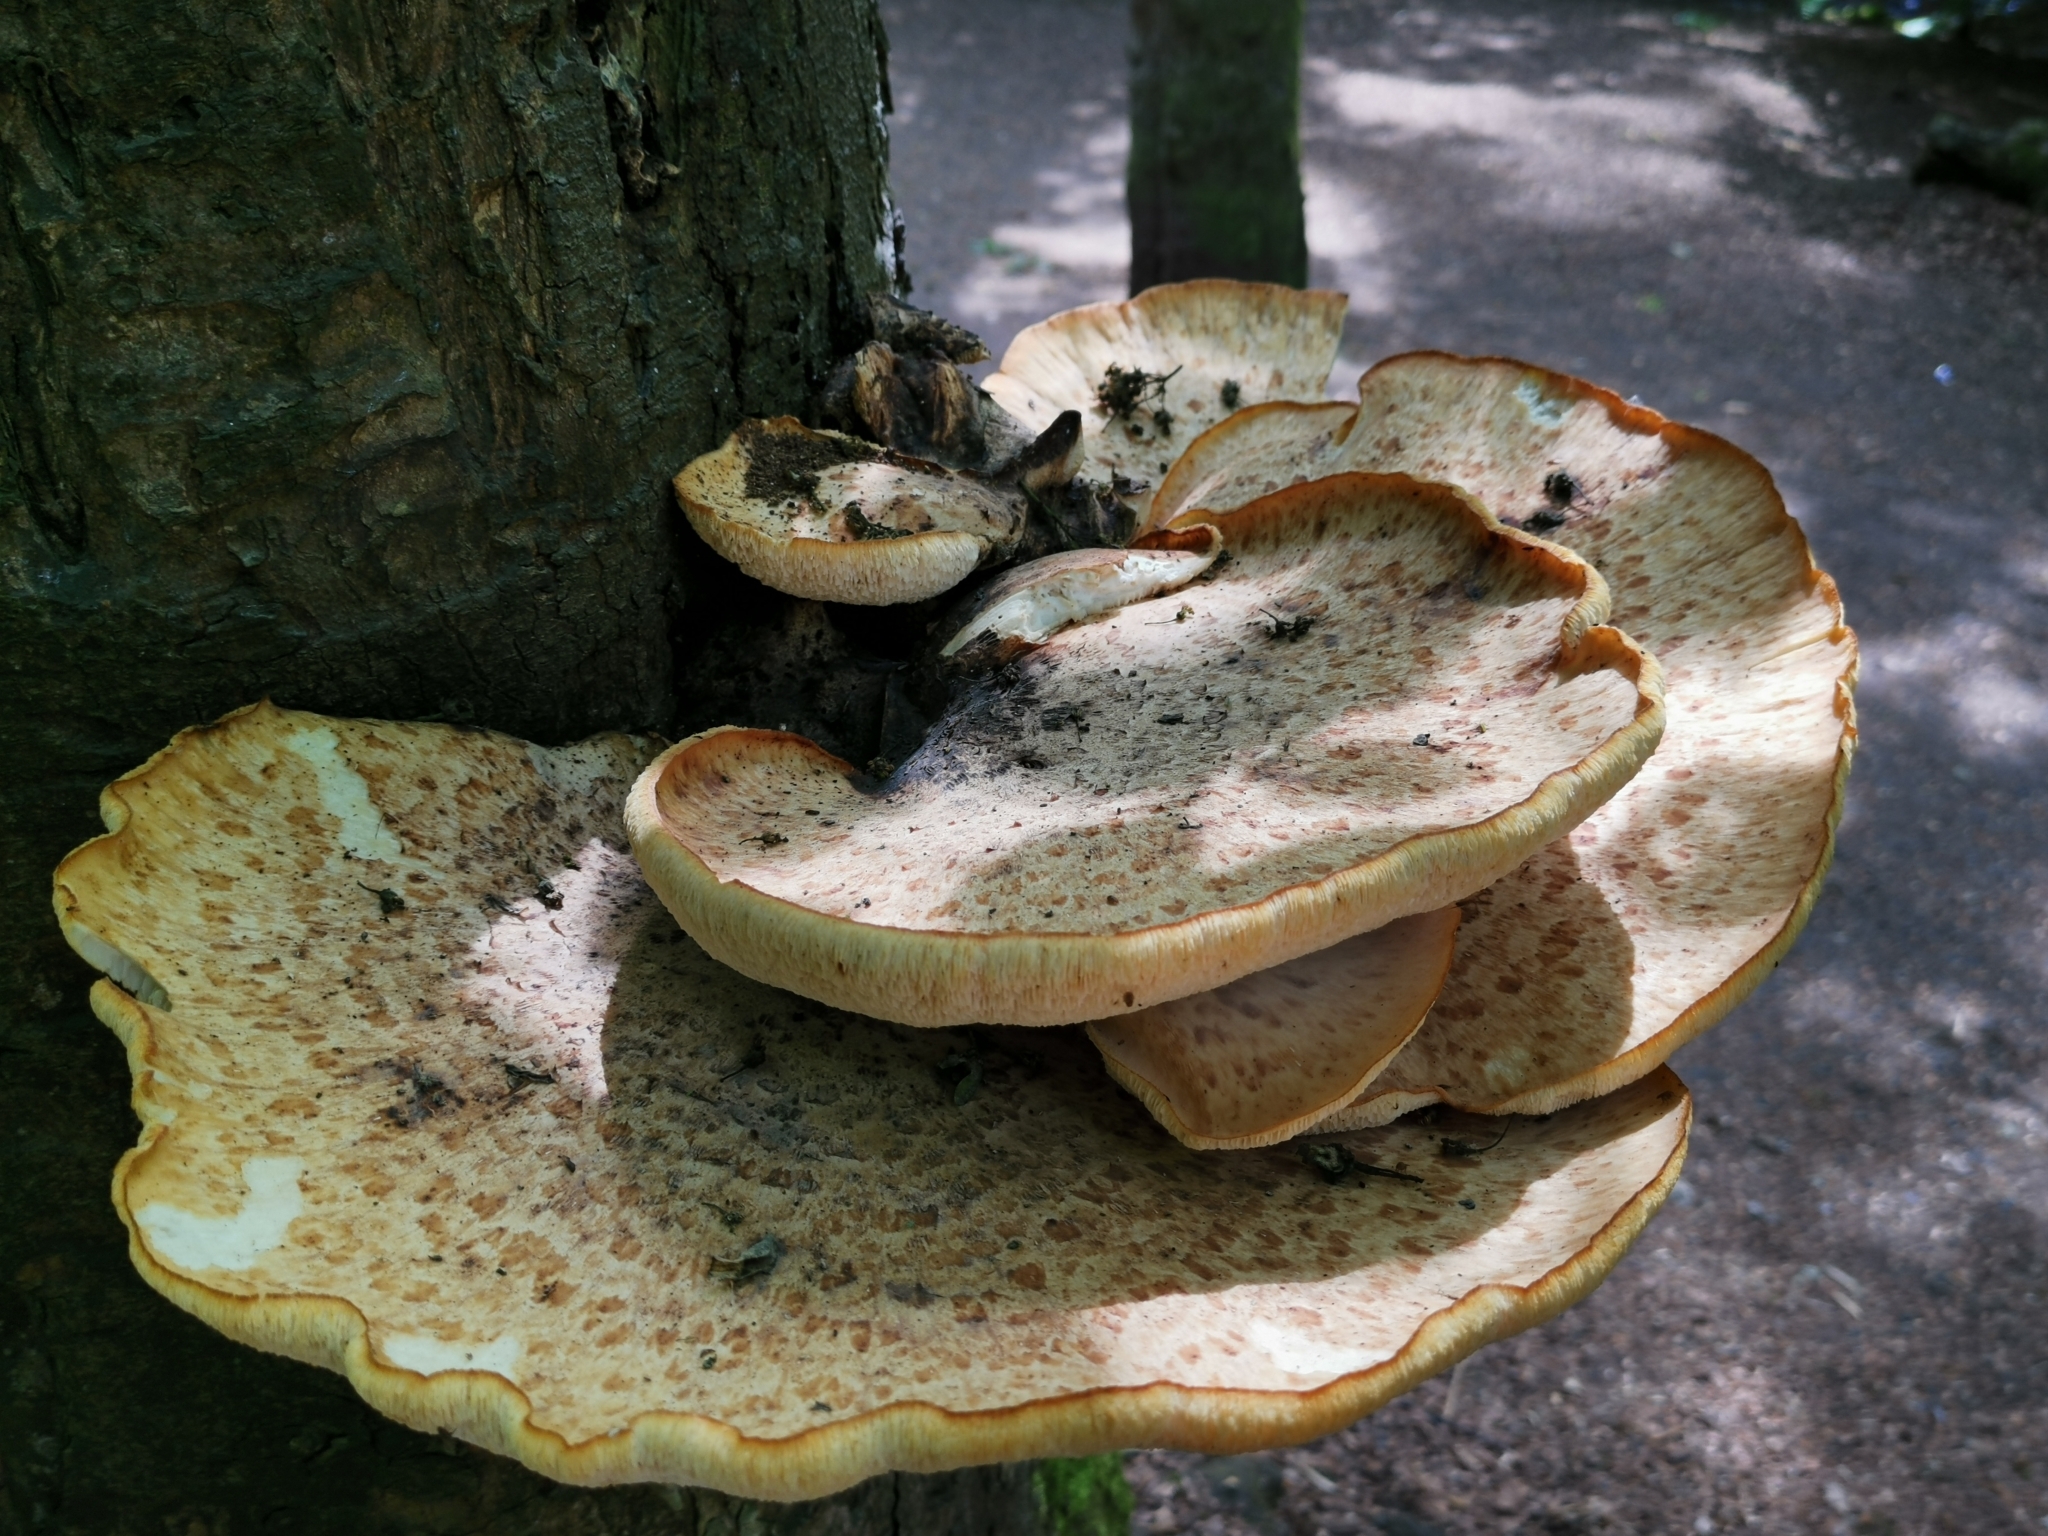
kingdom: Fungi
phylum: Basidiomycota
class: Agaricomycetes
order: Polyporales
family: Polyporaceae
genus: Cerioporus
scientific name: Cerioporus squamosus
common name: Dryad's saddle
